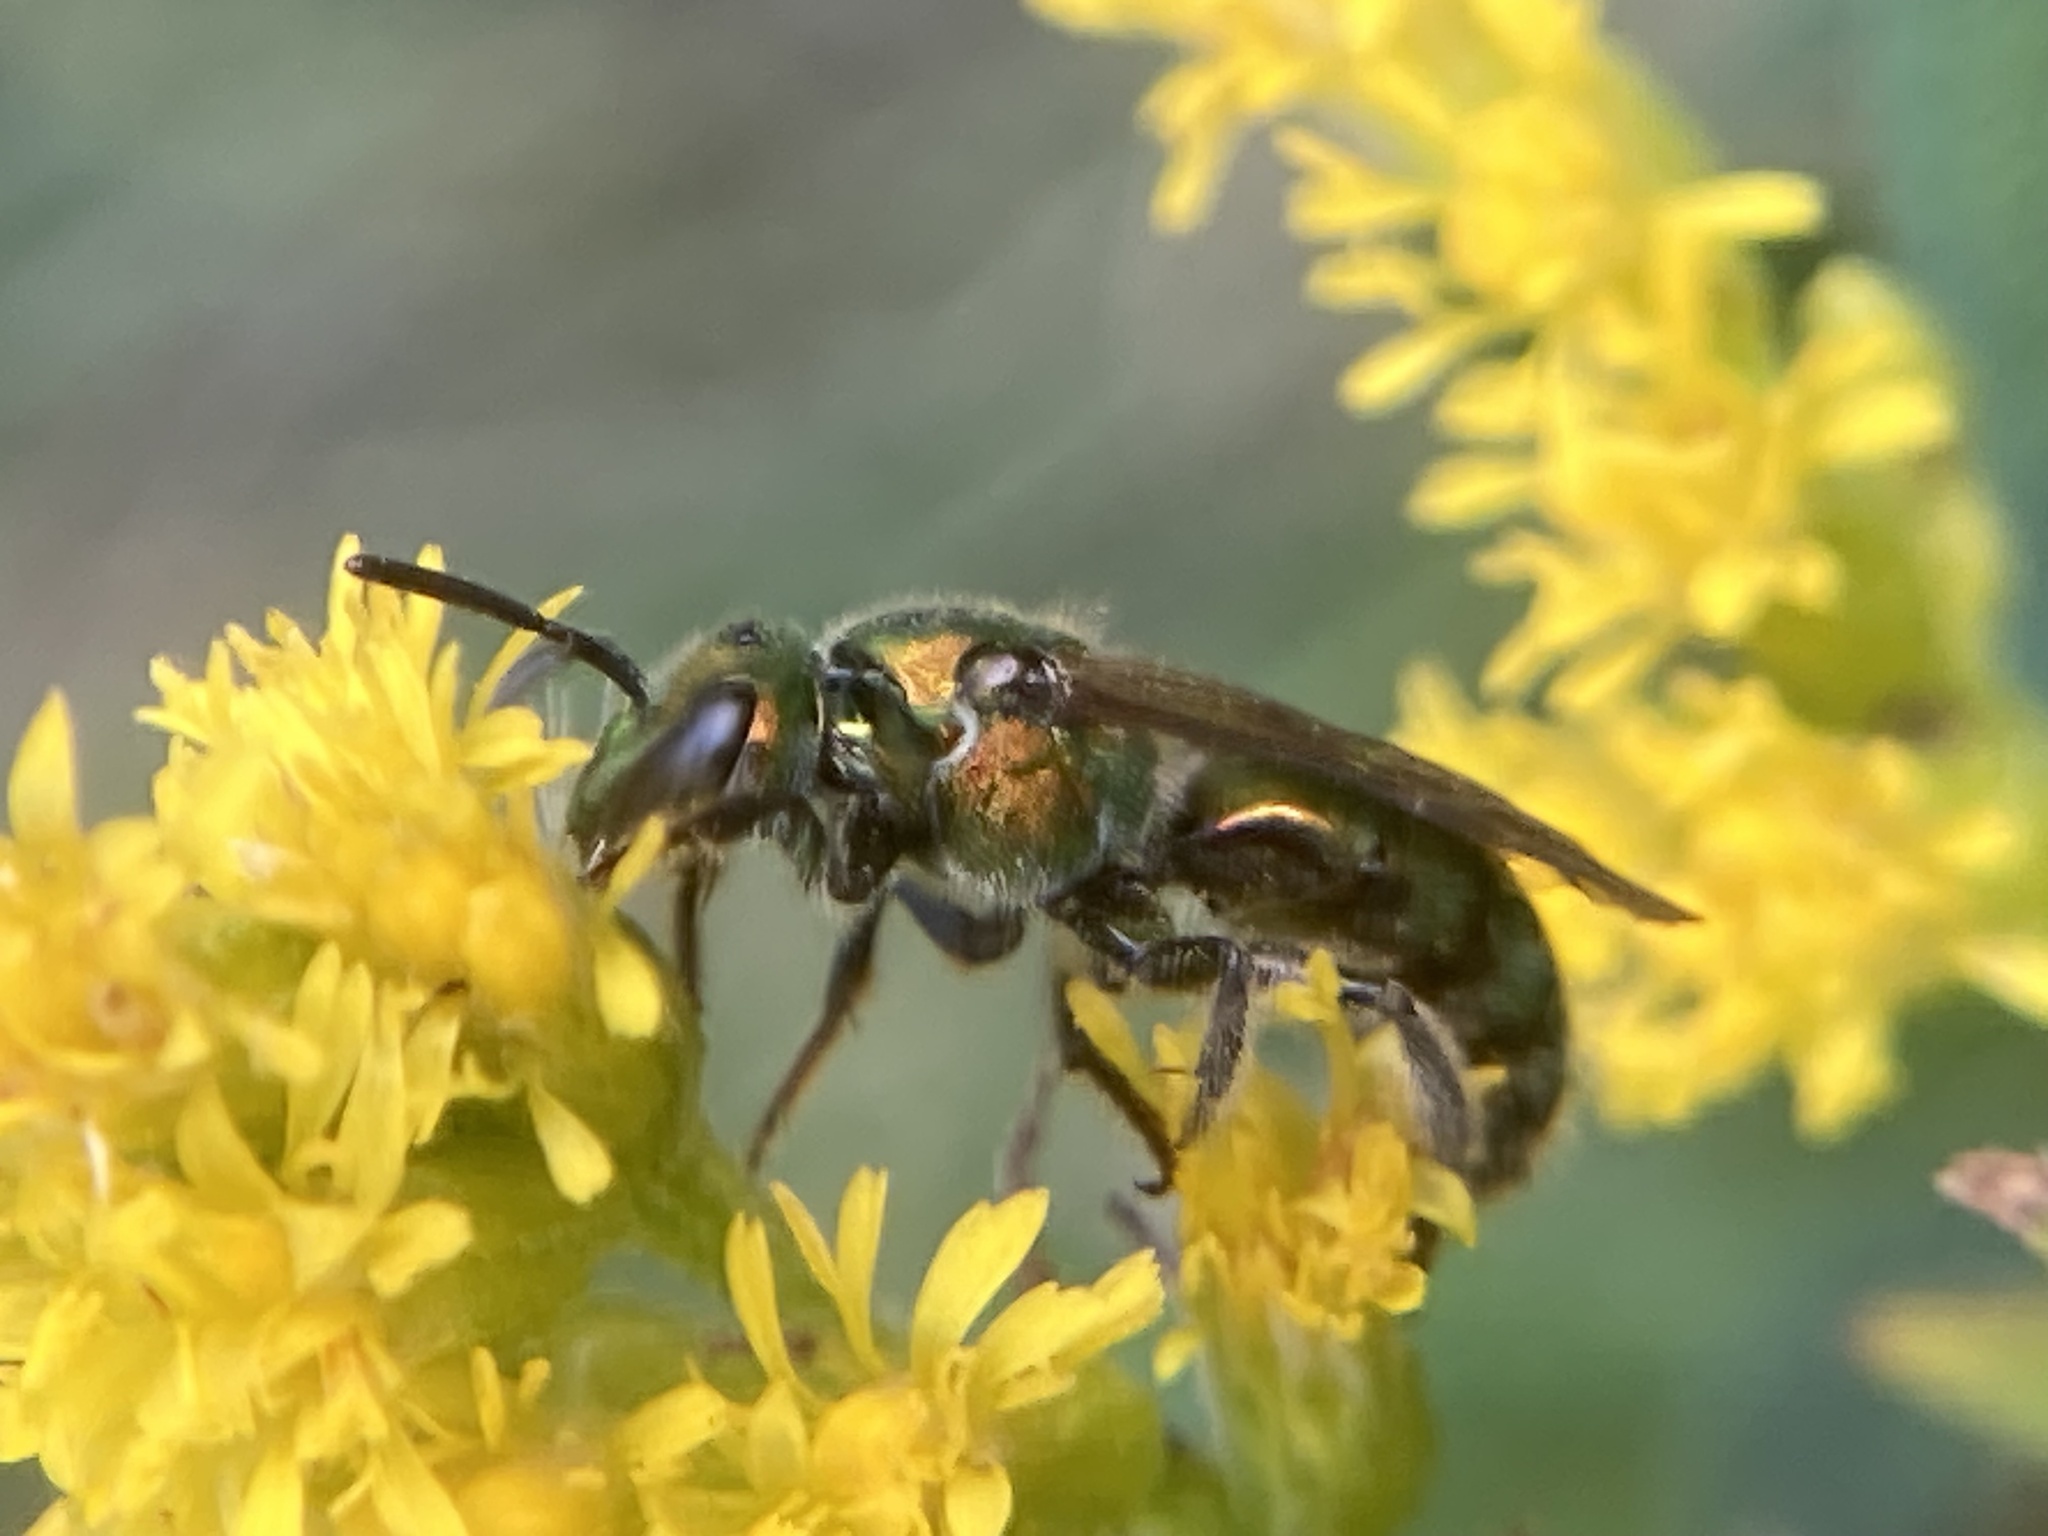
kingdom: Animalia
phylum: Arthropoda
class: Insecta
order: Hymenoptera
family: Halictidae
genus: Augochlora
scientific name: Augochlora pura
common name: Pure green sweat bee
